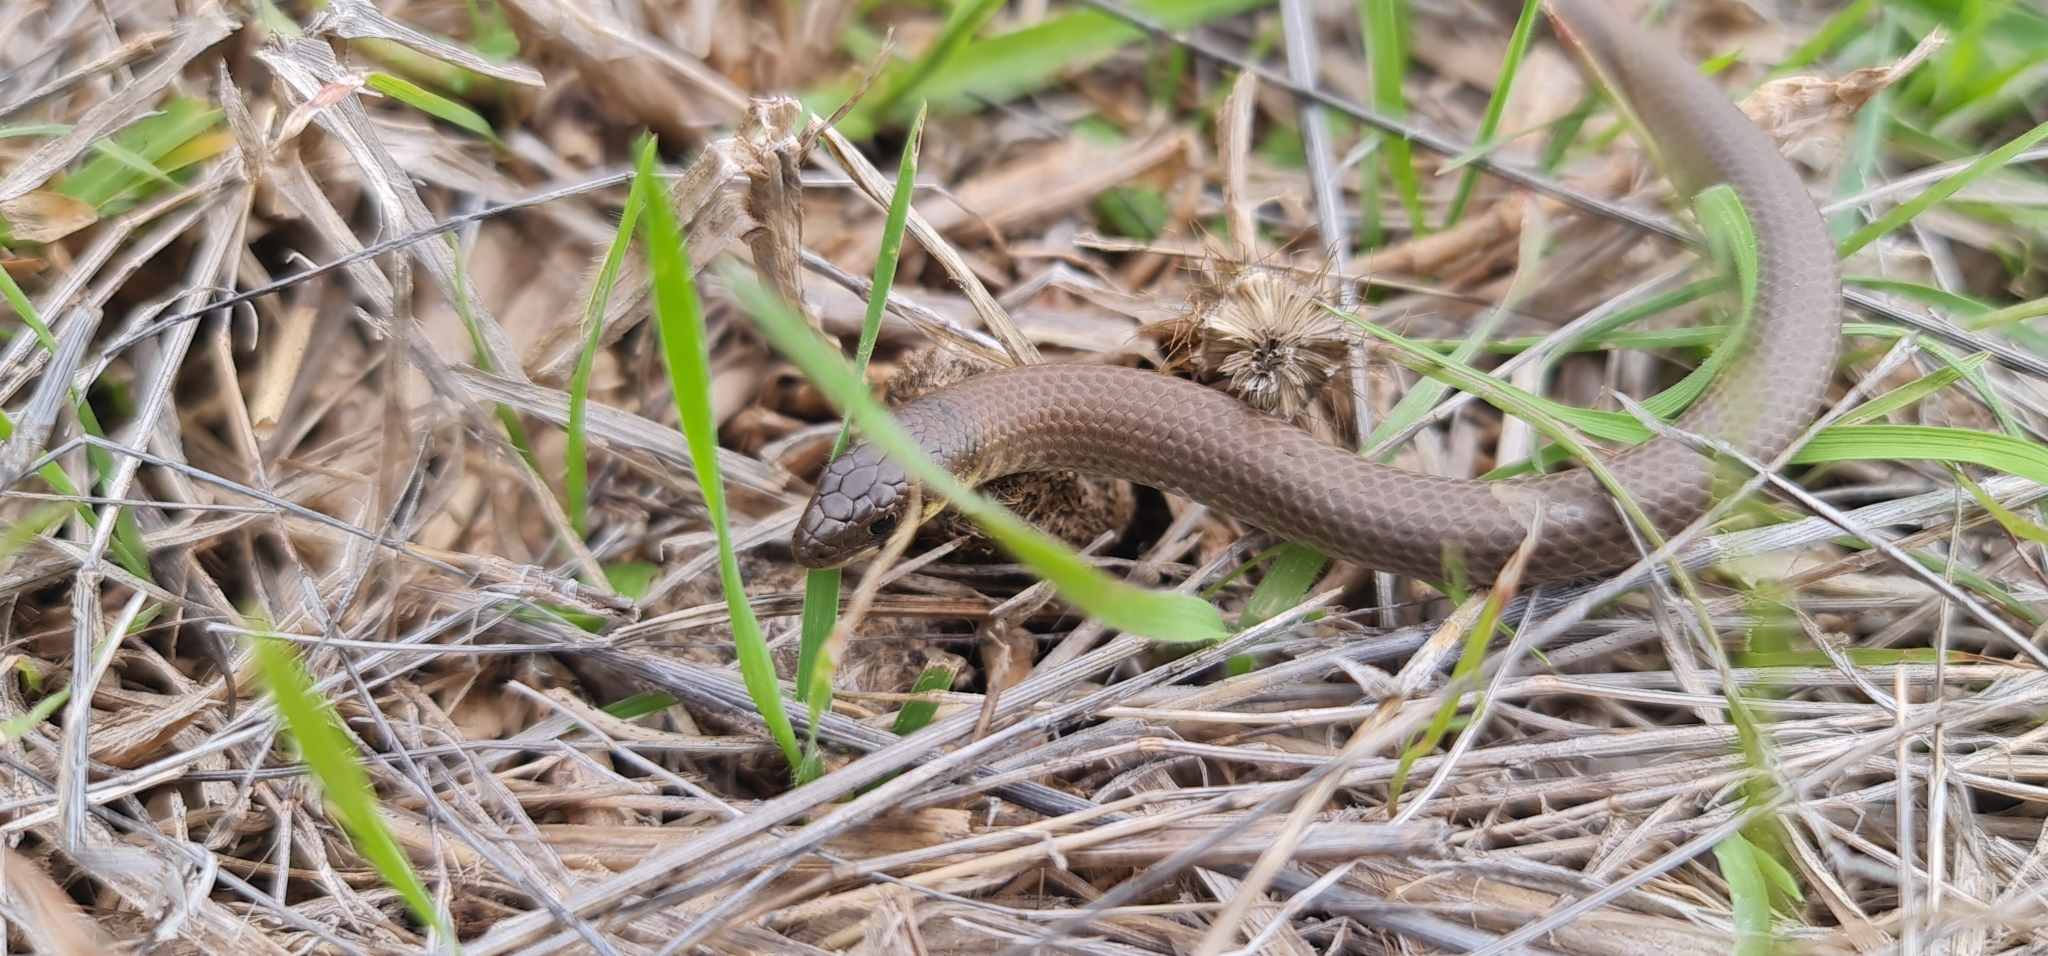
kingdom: Animalia
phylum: Chordata
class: Squamata
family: Pygopodidae
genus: Delma
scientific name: Delma molleri
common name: Gulfs delma
